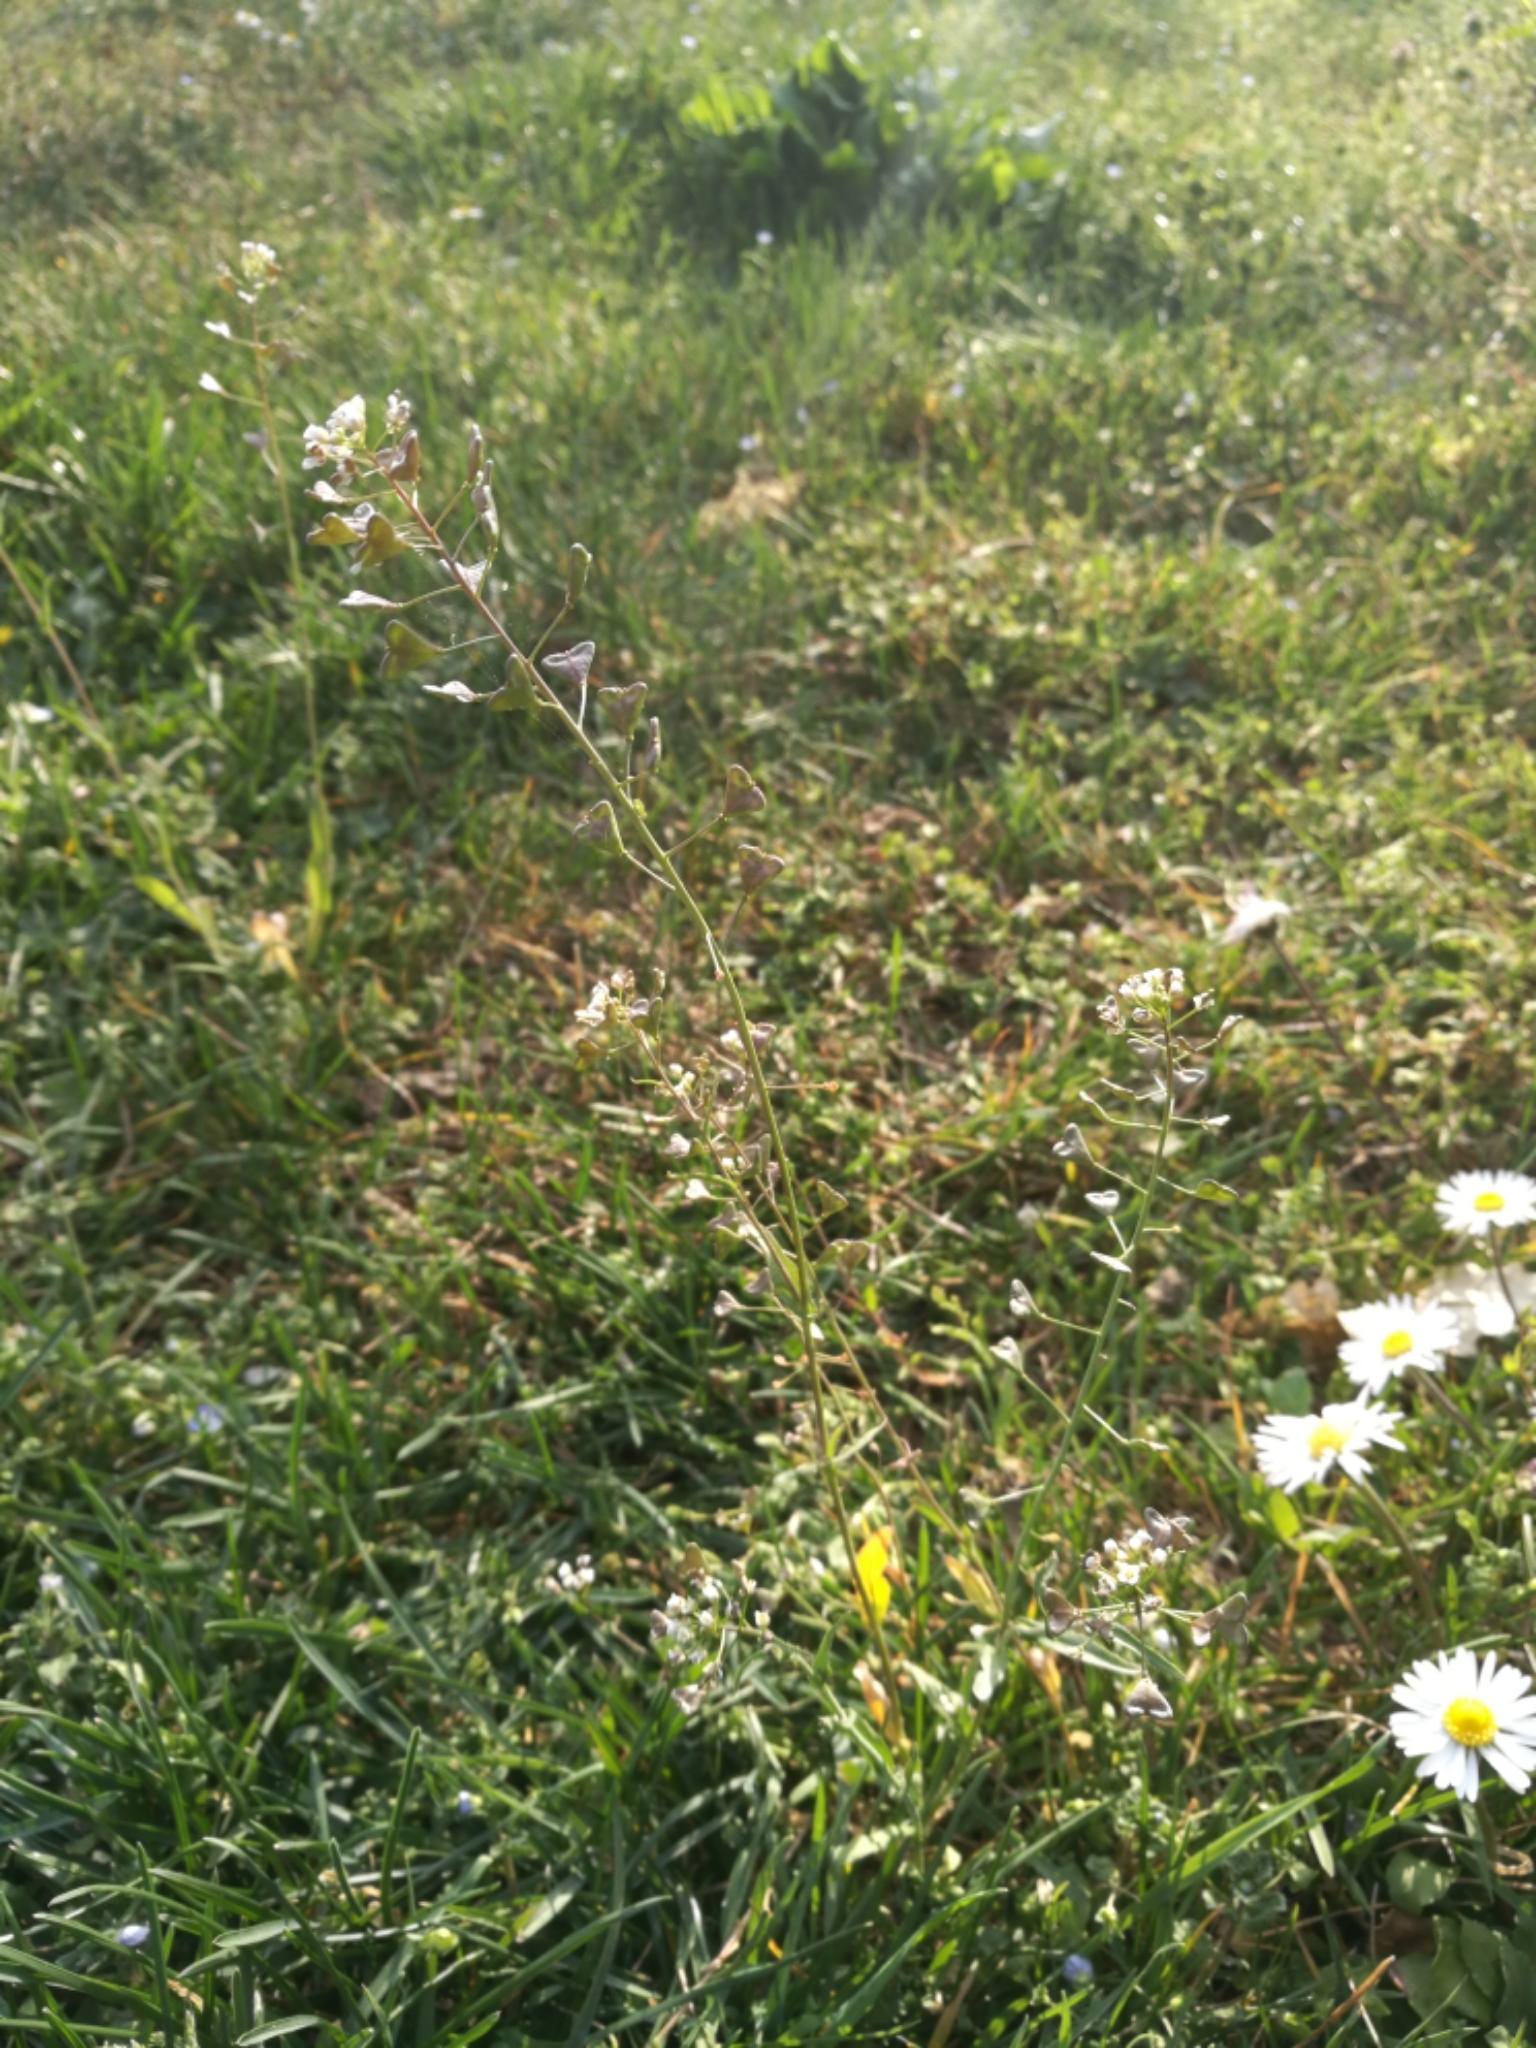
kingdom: Plantae
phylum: Tracheophyta
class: Magnoliopsida
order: Brassicales
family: Brassicaceae
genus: Capsella
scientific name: Capsella bursa-pastoris
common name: Shepherd's purse
